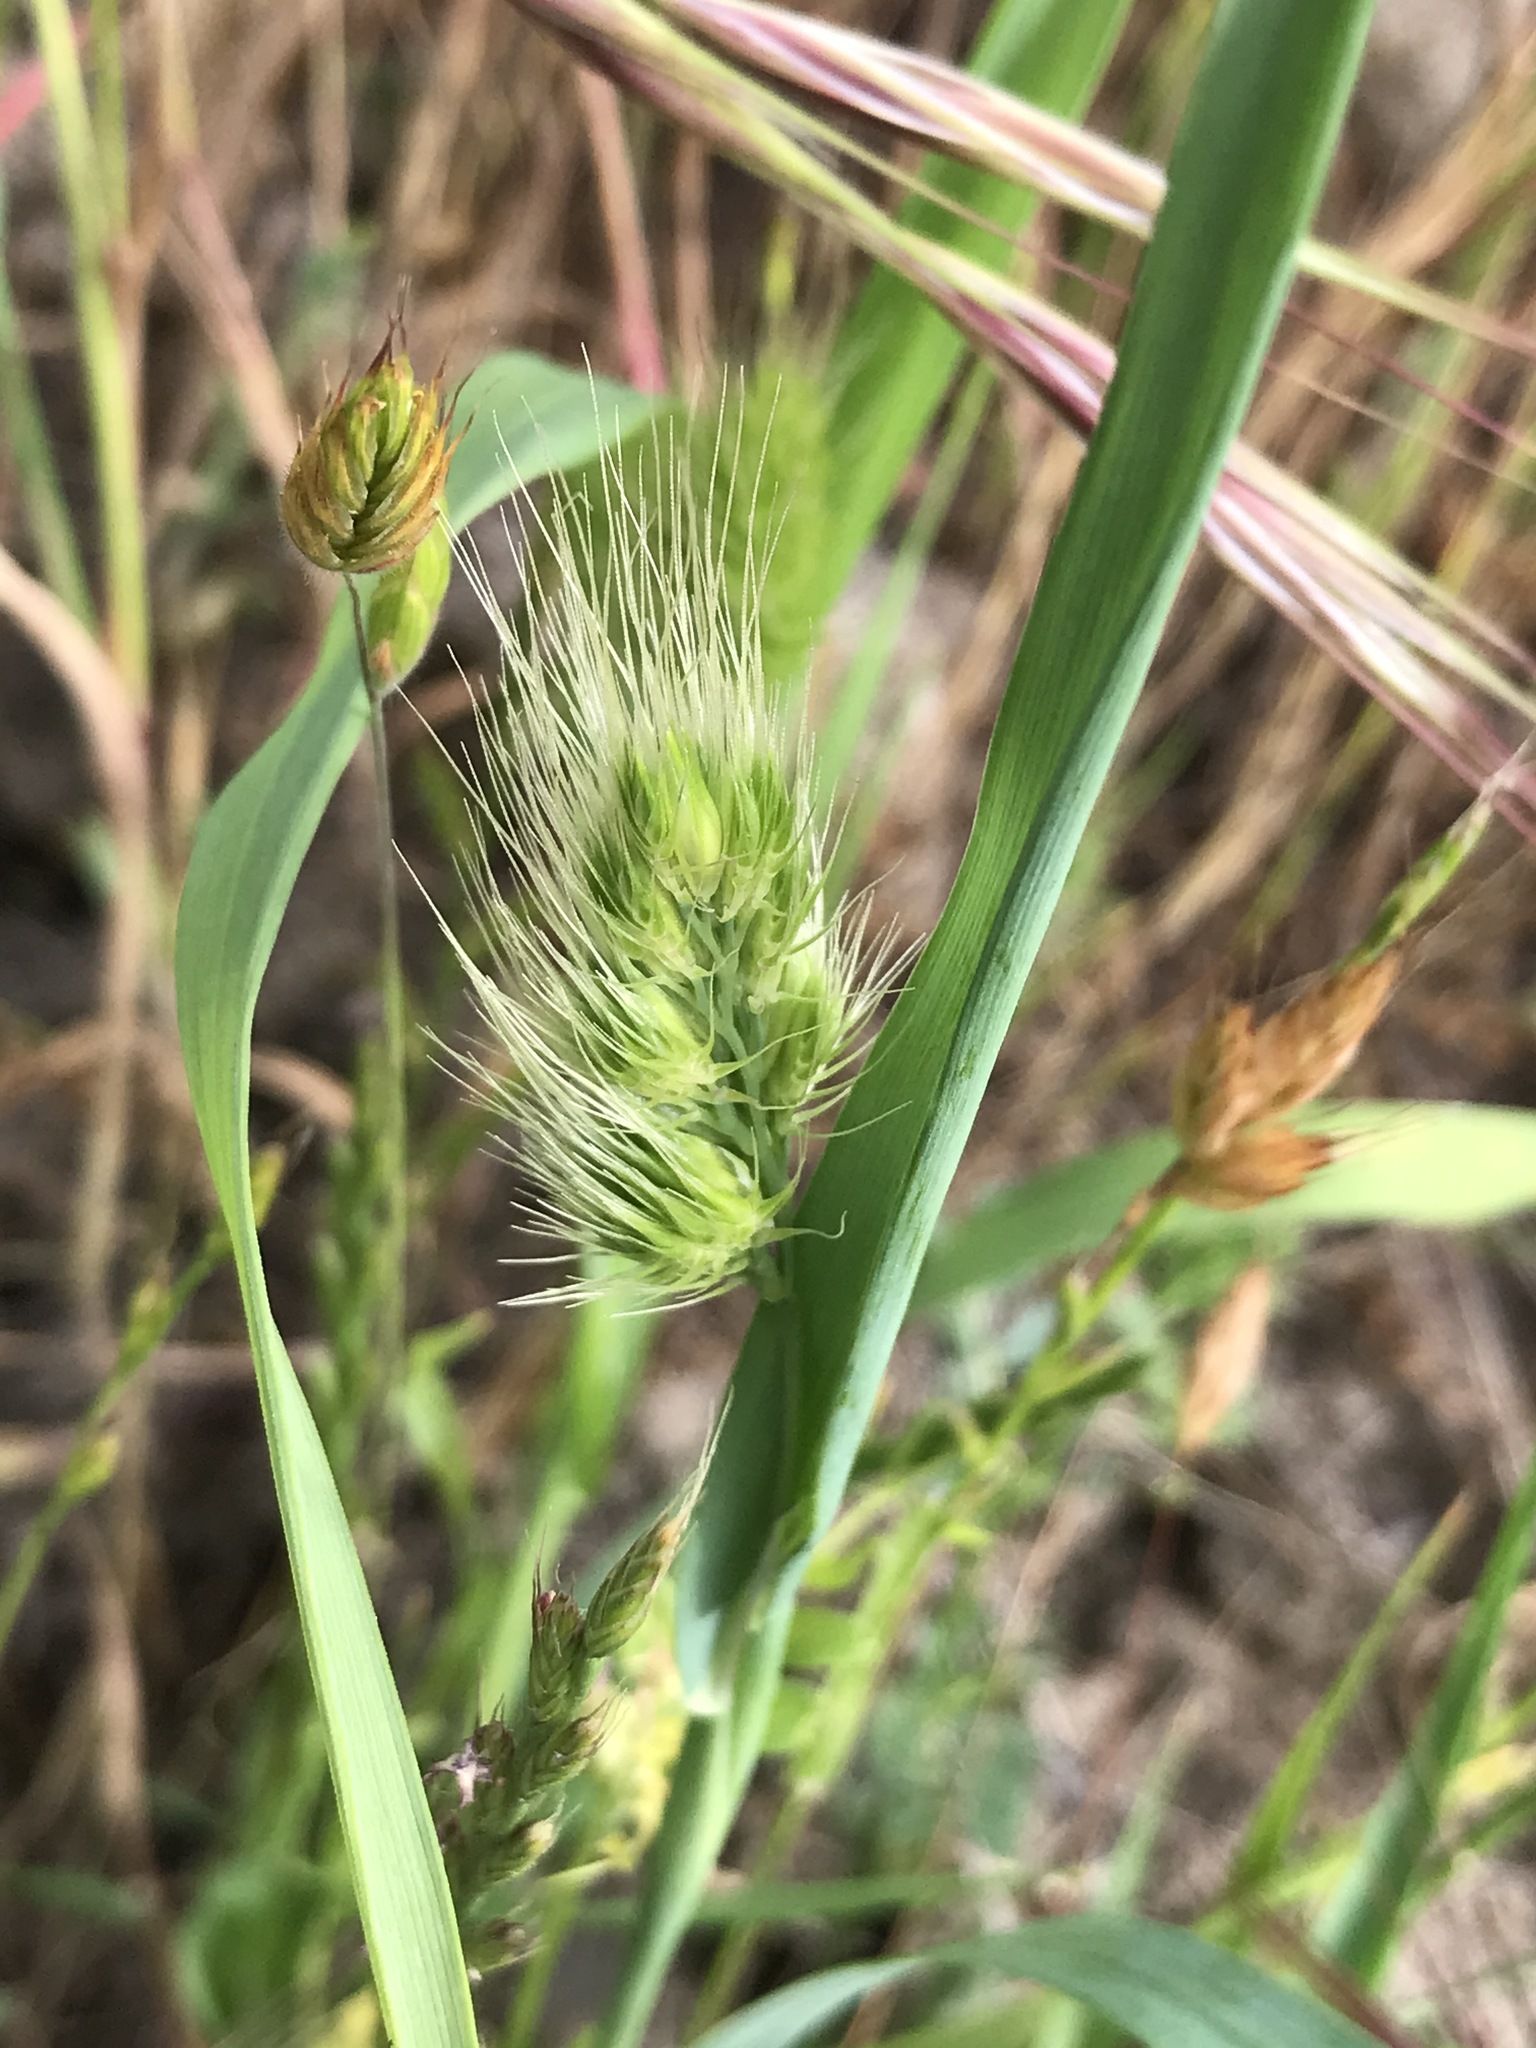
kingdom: Plantae
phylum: Tracheophyta
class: Liliopsida
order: Poales
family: Poaceae
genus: Cynosurus
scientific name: Cynosurus echinatus
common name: Rough dog's-tail
